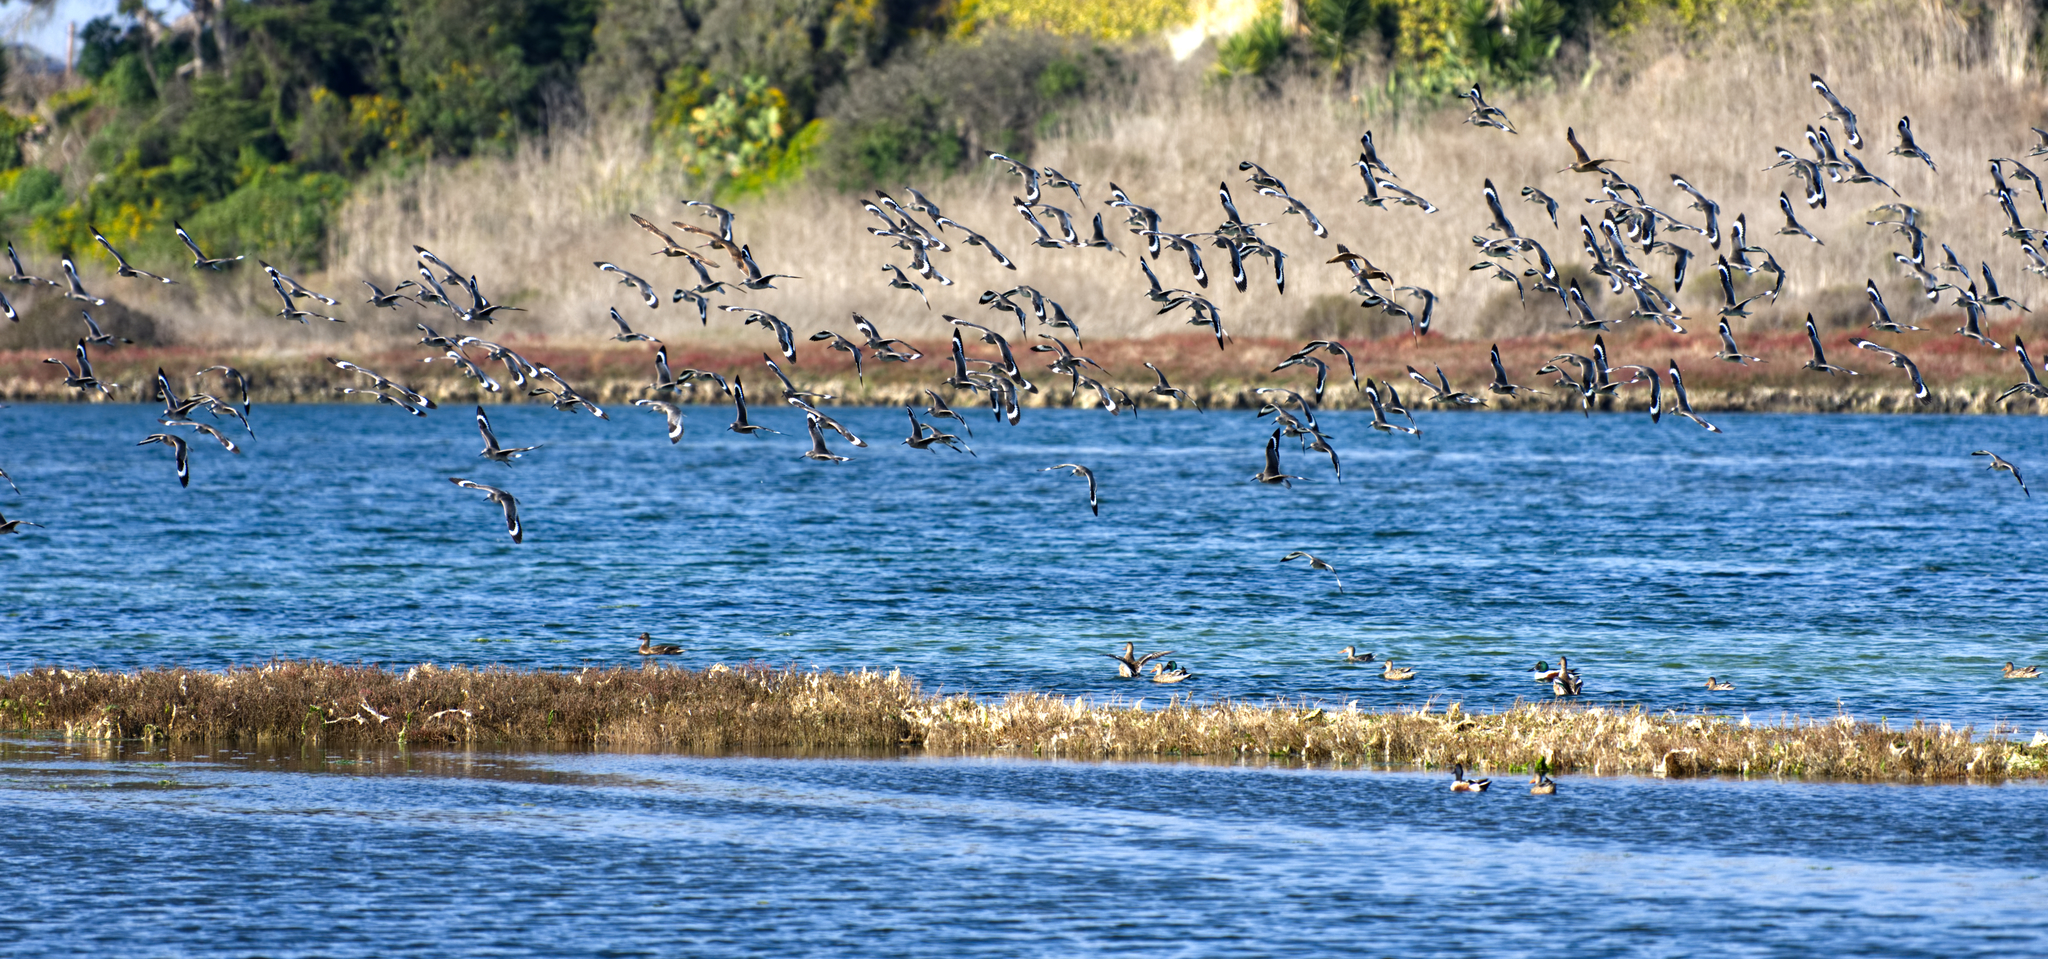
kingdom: Animalia
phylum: Chordata
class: Aves
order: Charadriiformes
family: Scolopacidae
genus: Tringa
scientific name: Tringa semipalmata
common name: Willet
